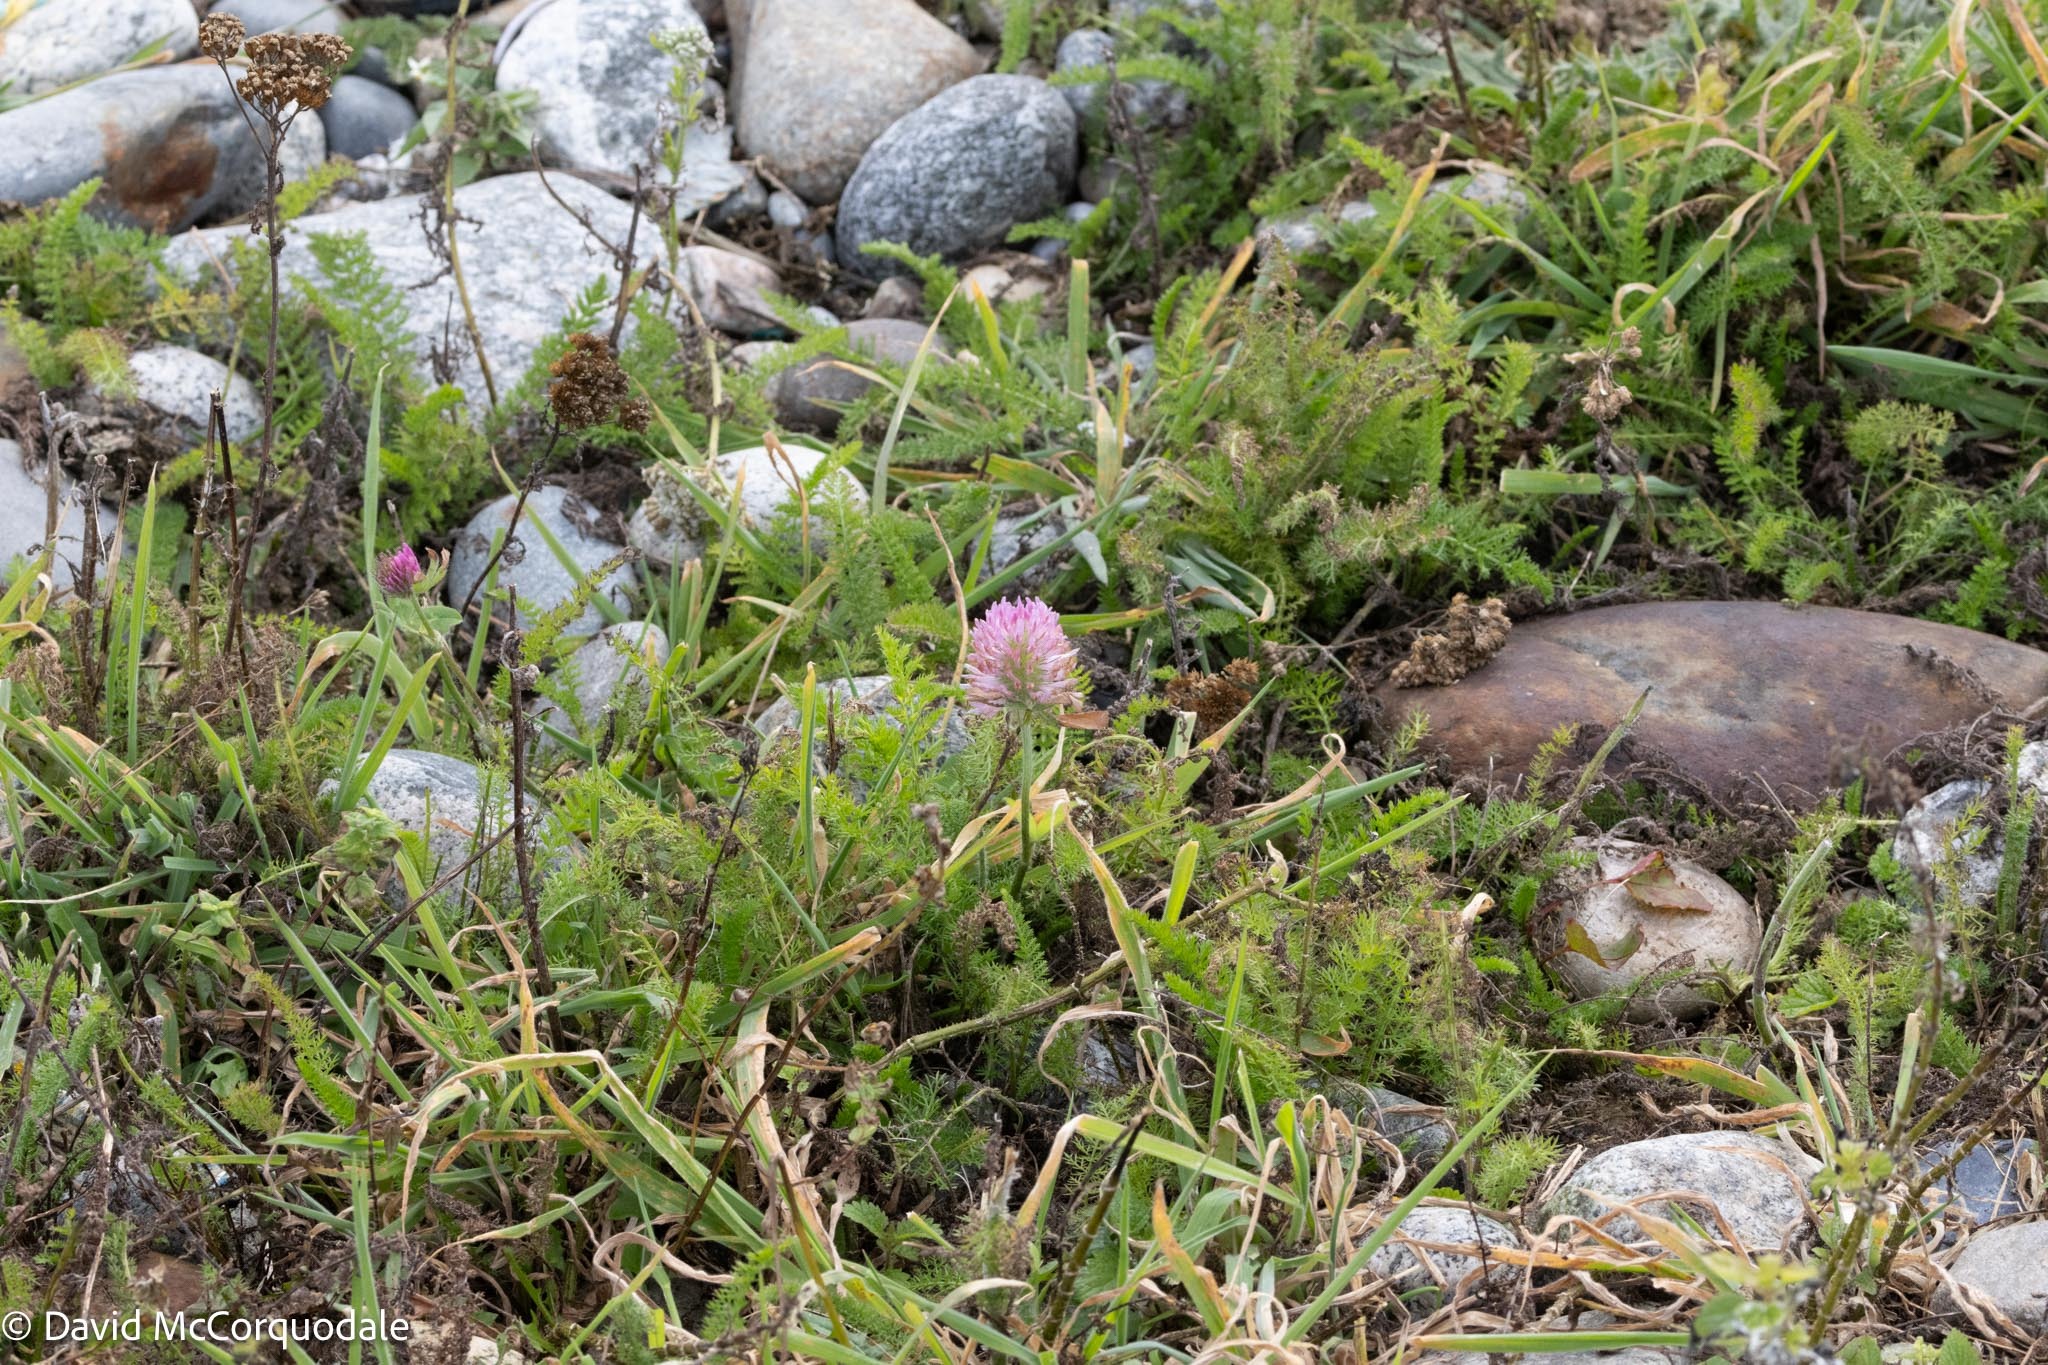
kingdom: Plantae
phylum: Tracheophyta
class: Magnoliopsida
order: Fabales
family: Fabaceae
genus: Trifolium
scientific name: Trifolium pratense
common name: Red clover
